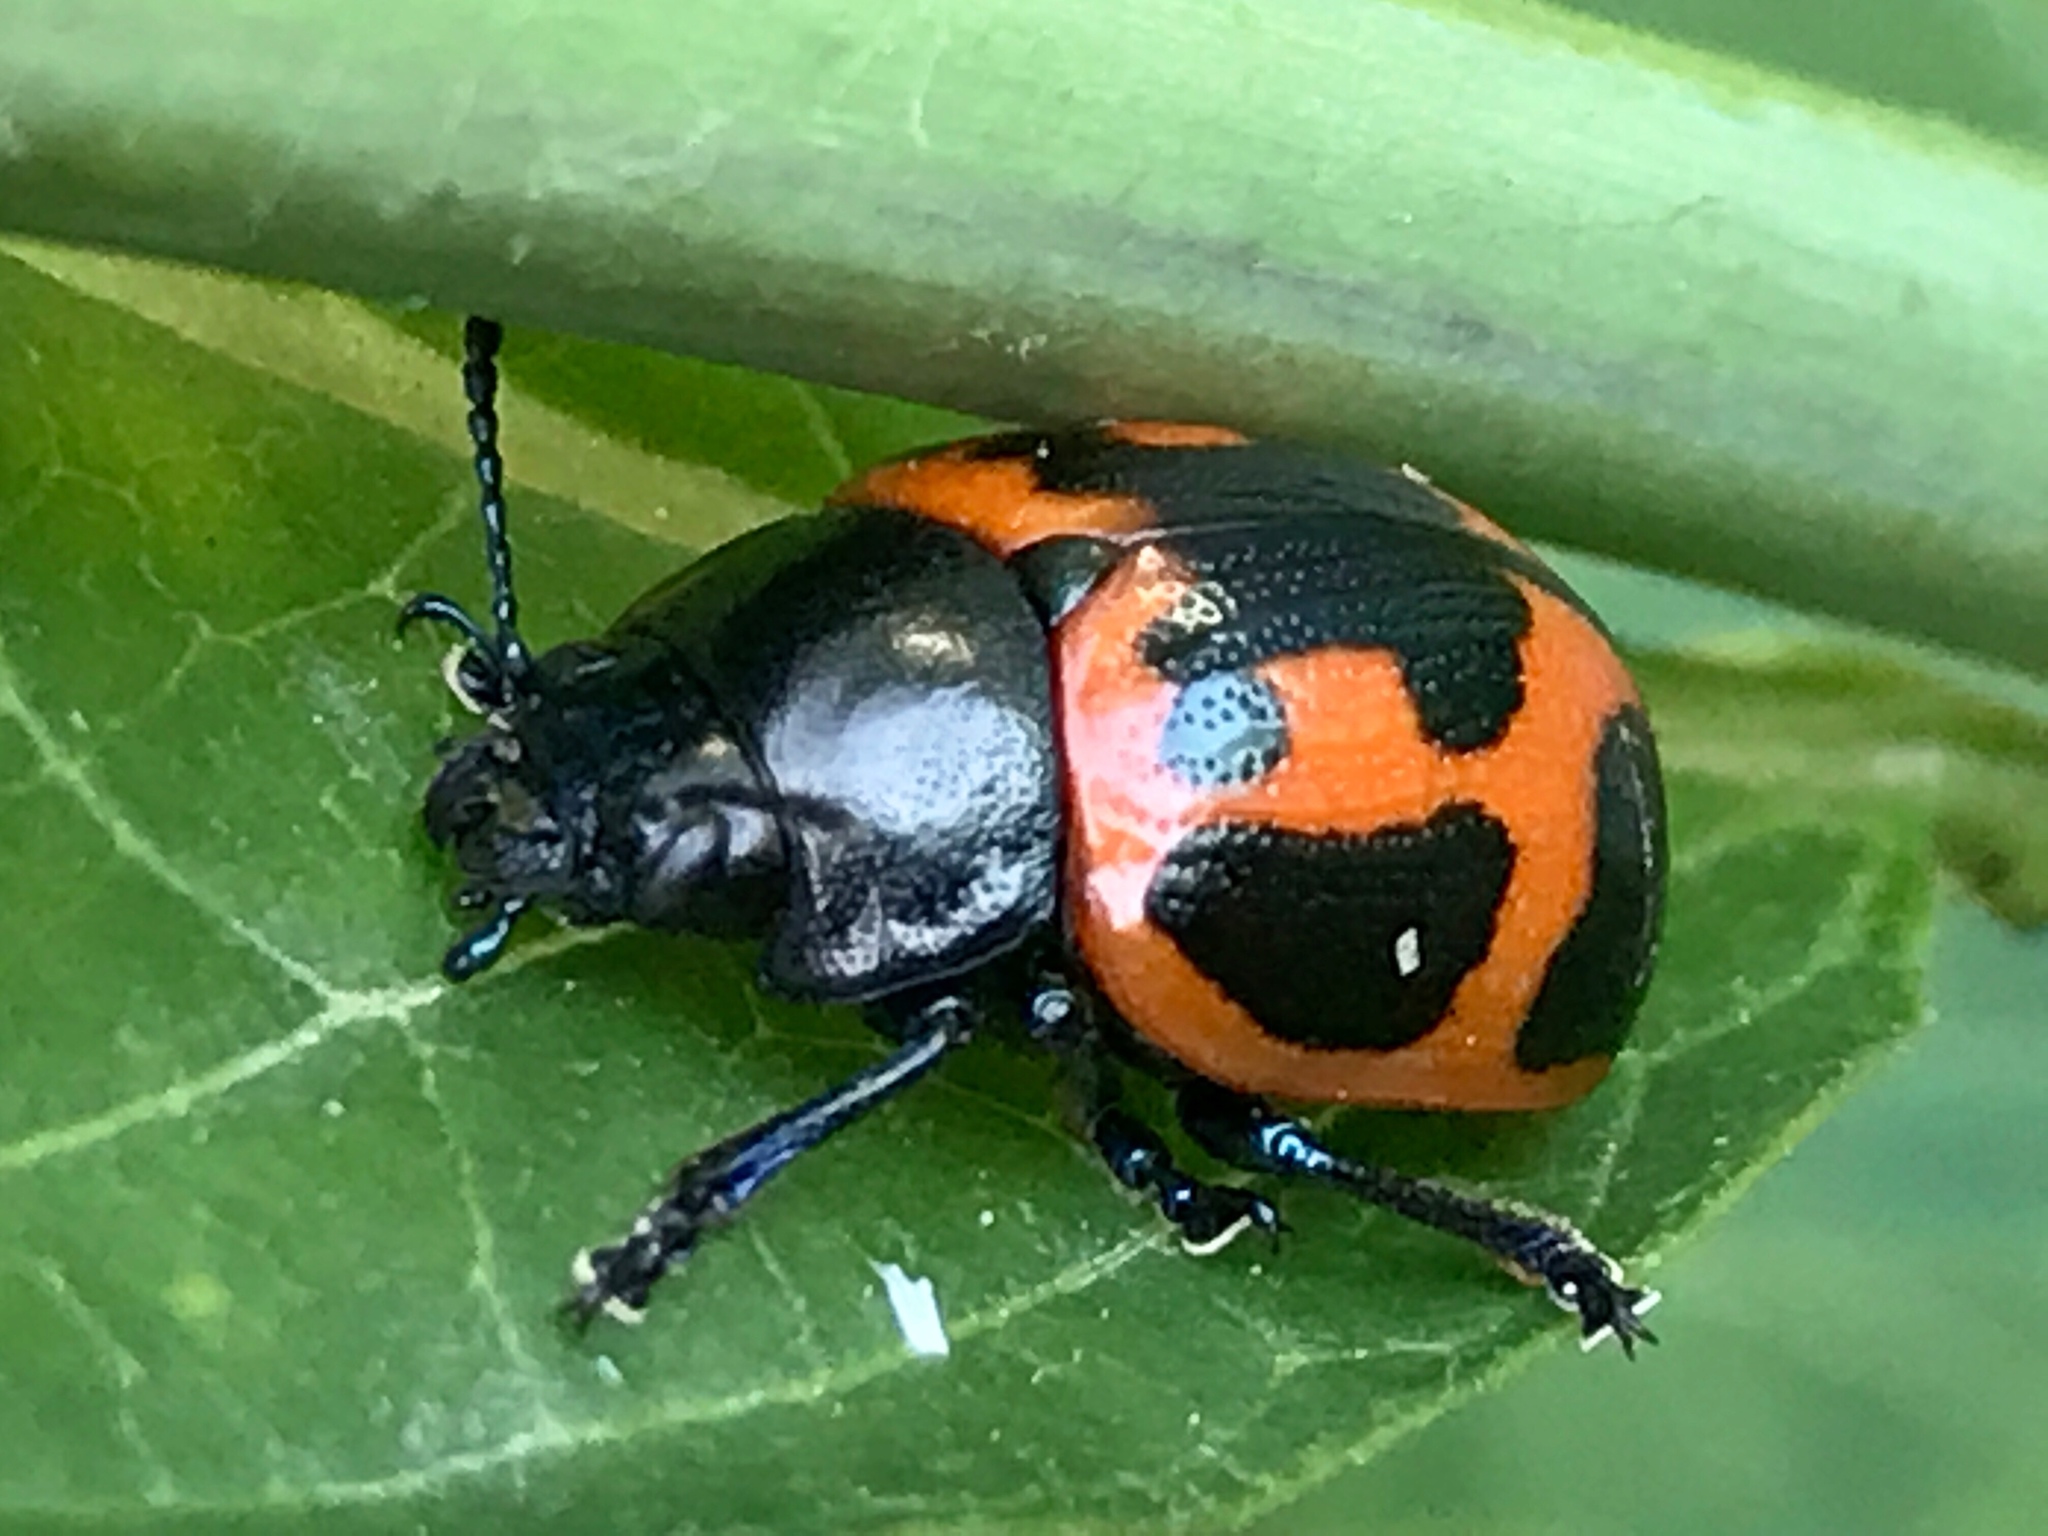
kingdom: Animalia
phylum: Arthropoda
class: Insecta
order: Coleoptera
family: Chrysomelidae
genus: Labidomera
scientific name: Labidomera clivicollis
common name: Swamp milkweed leaf beetle
